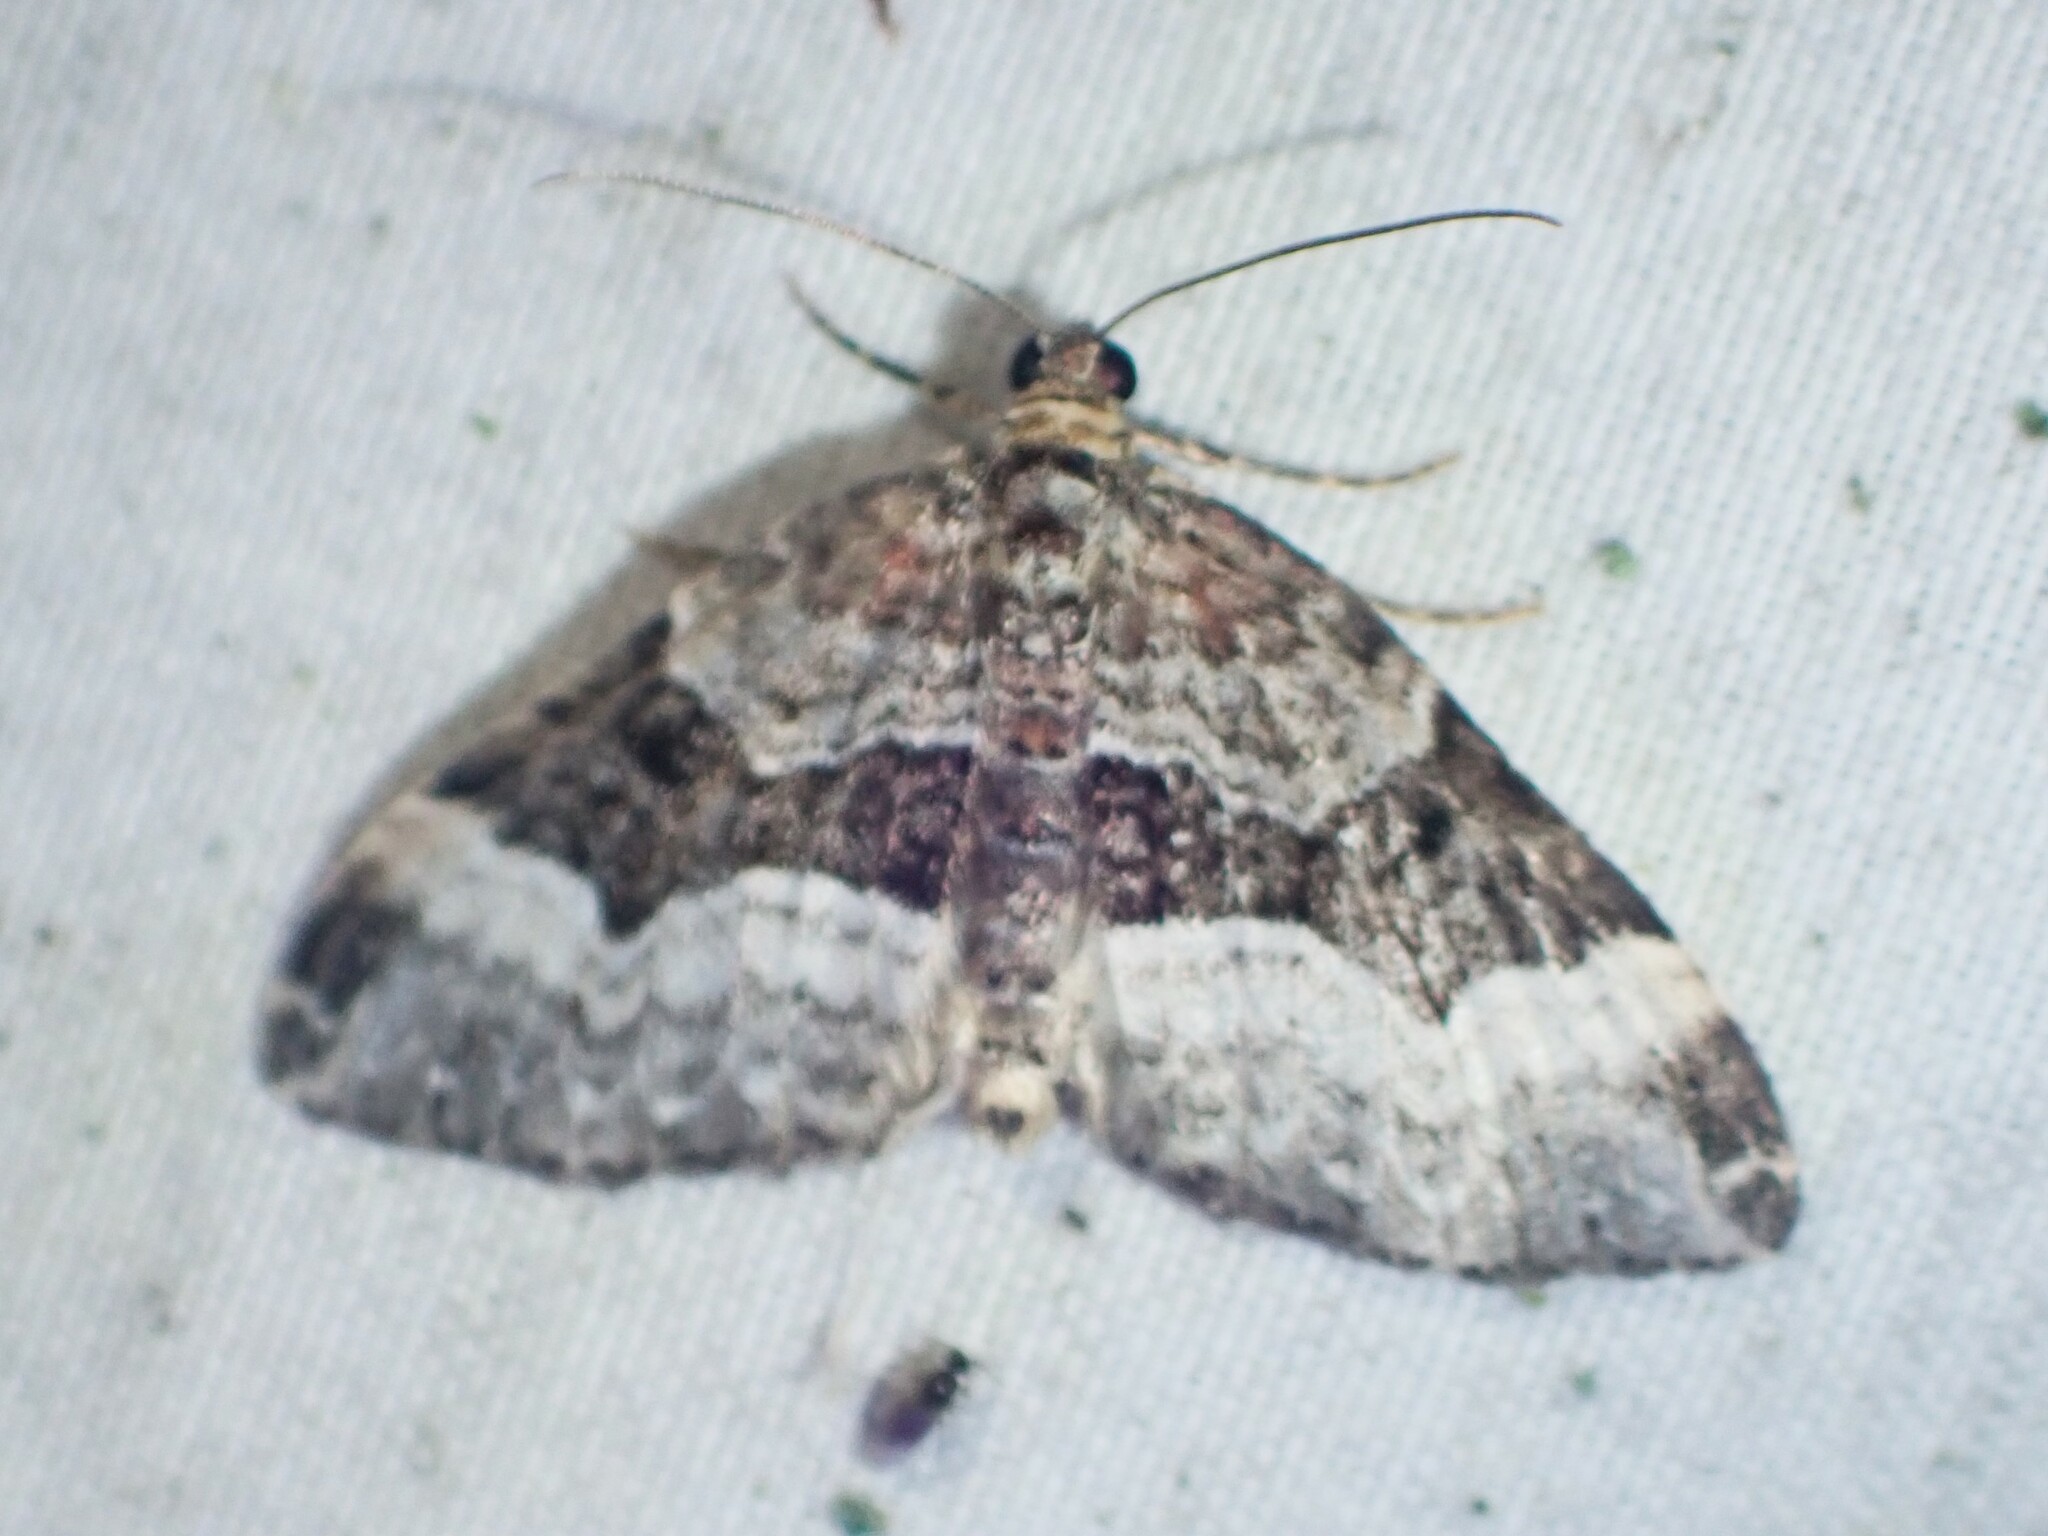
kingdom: Animalia
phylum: Arthropoda
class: Insecta
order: Lepidoptera
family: Geometridae
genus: Euphyia
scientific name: Euphyia intermediata
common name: Sharp-angled carpet
